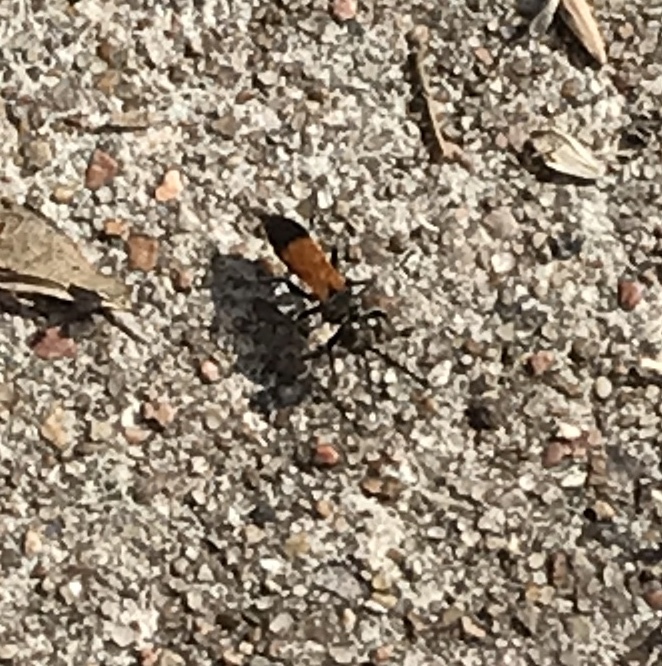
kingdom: Animalia
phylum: Arthropoda
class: Insecta
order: Hymenoptera
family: Crabronidae
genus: Liris
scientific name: Liris partitus
